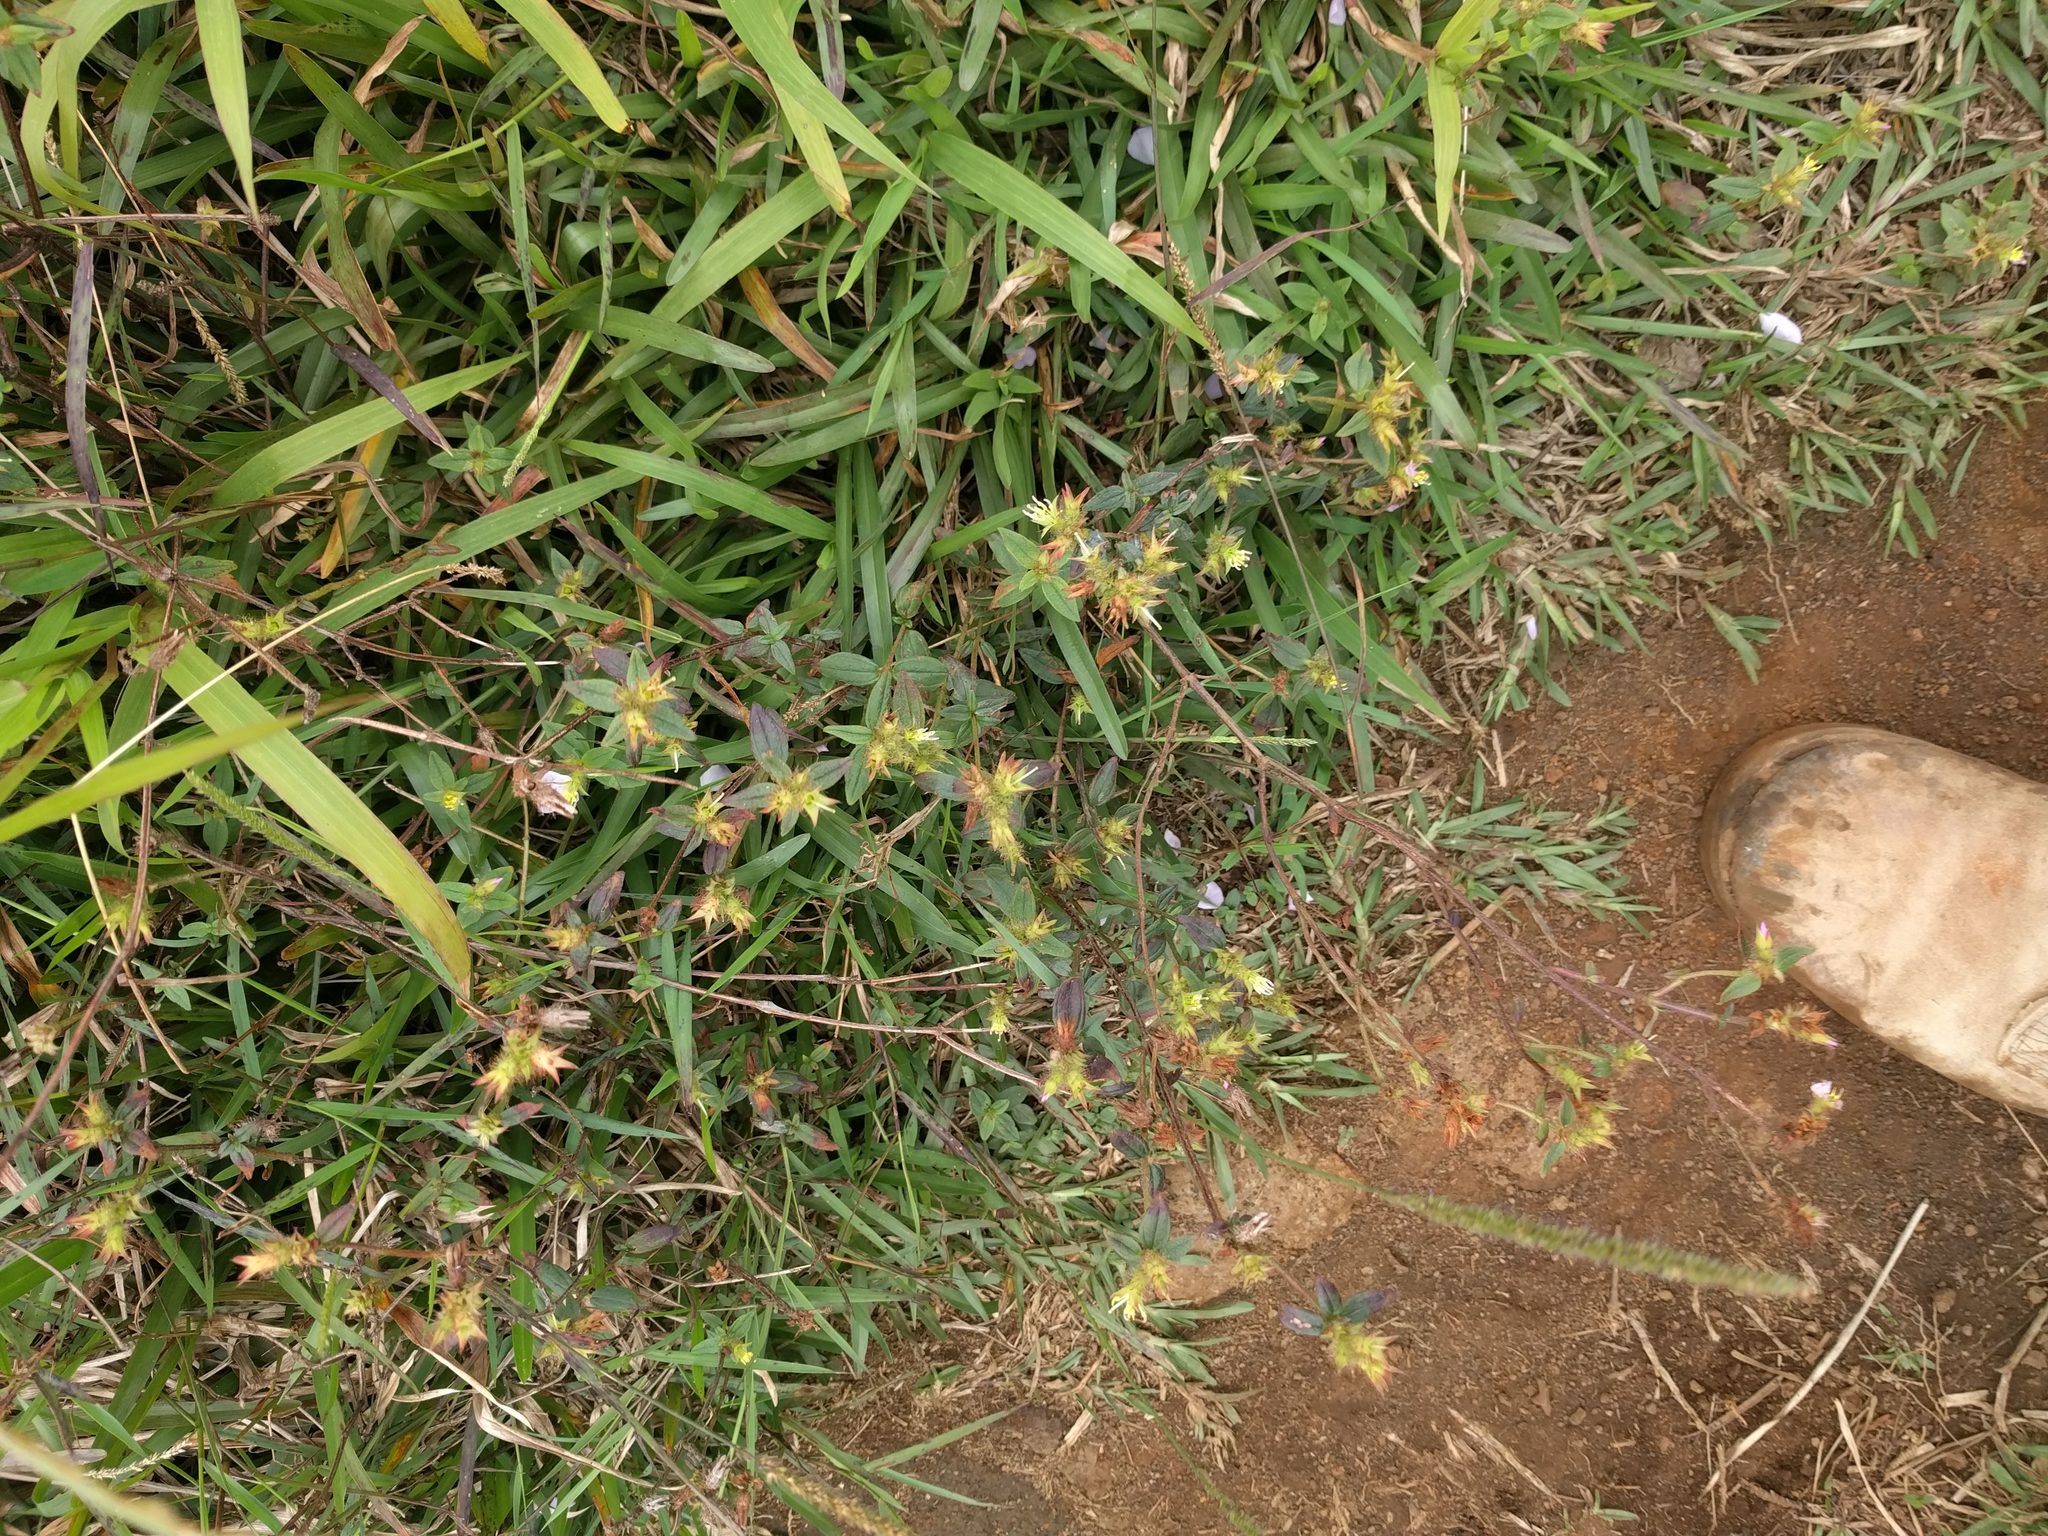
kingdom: Plantae
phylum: Tracheophyta
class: Magnoliopsida
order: Myrtales
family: Melastomataceae
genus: Pterolepis
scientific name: Pterolepis glomerata
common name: False meadowbeauty
